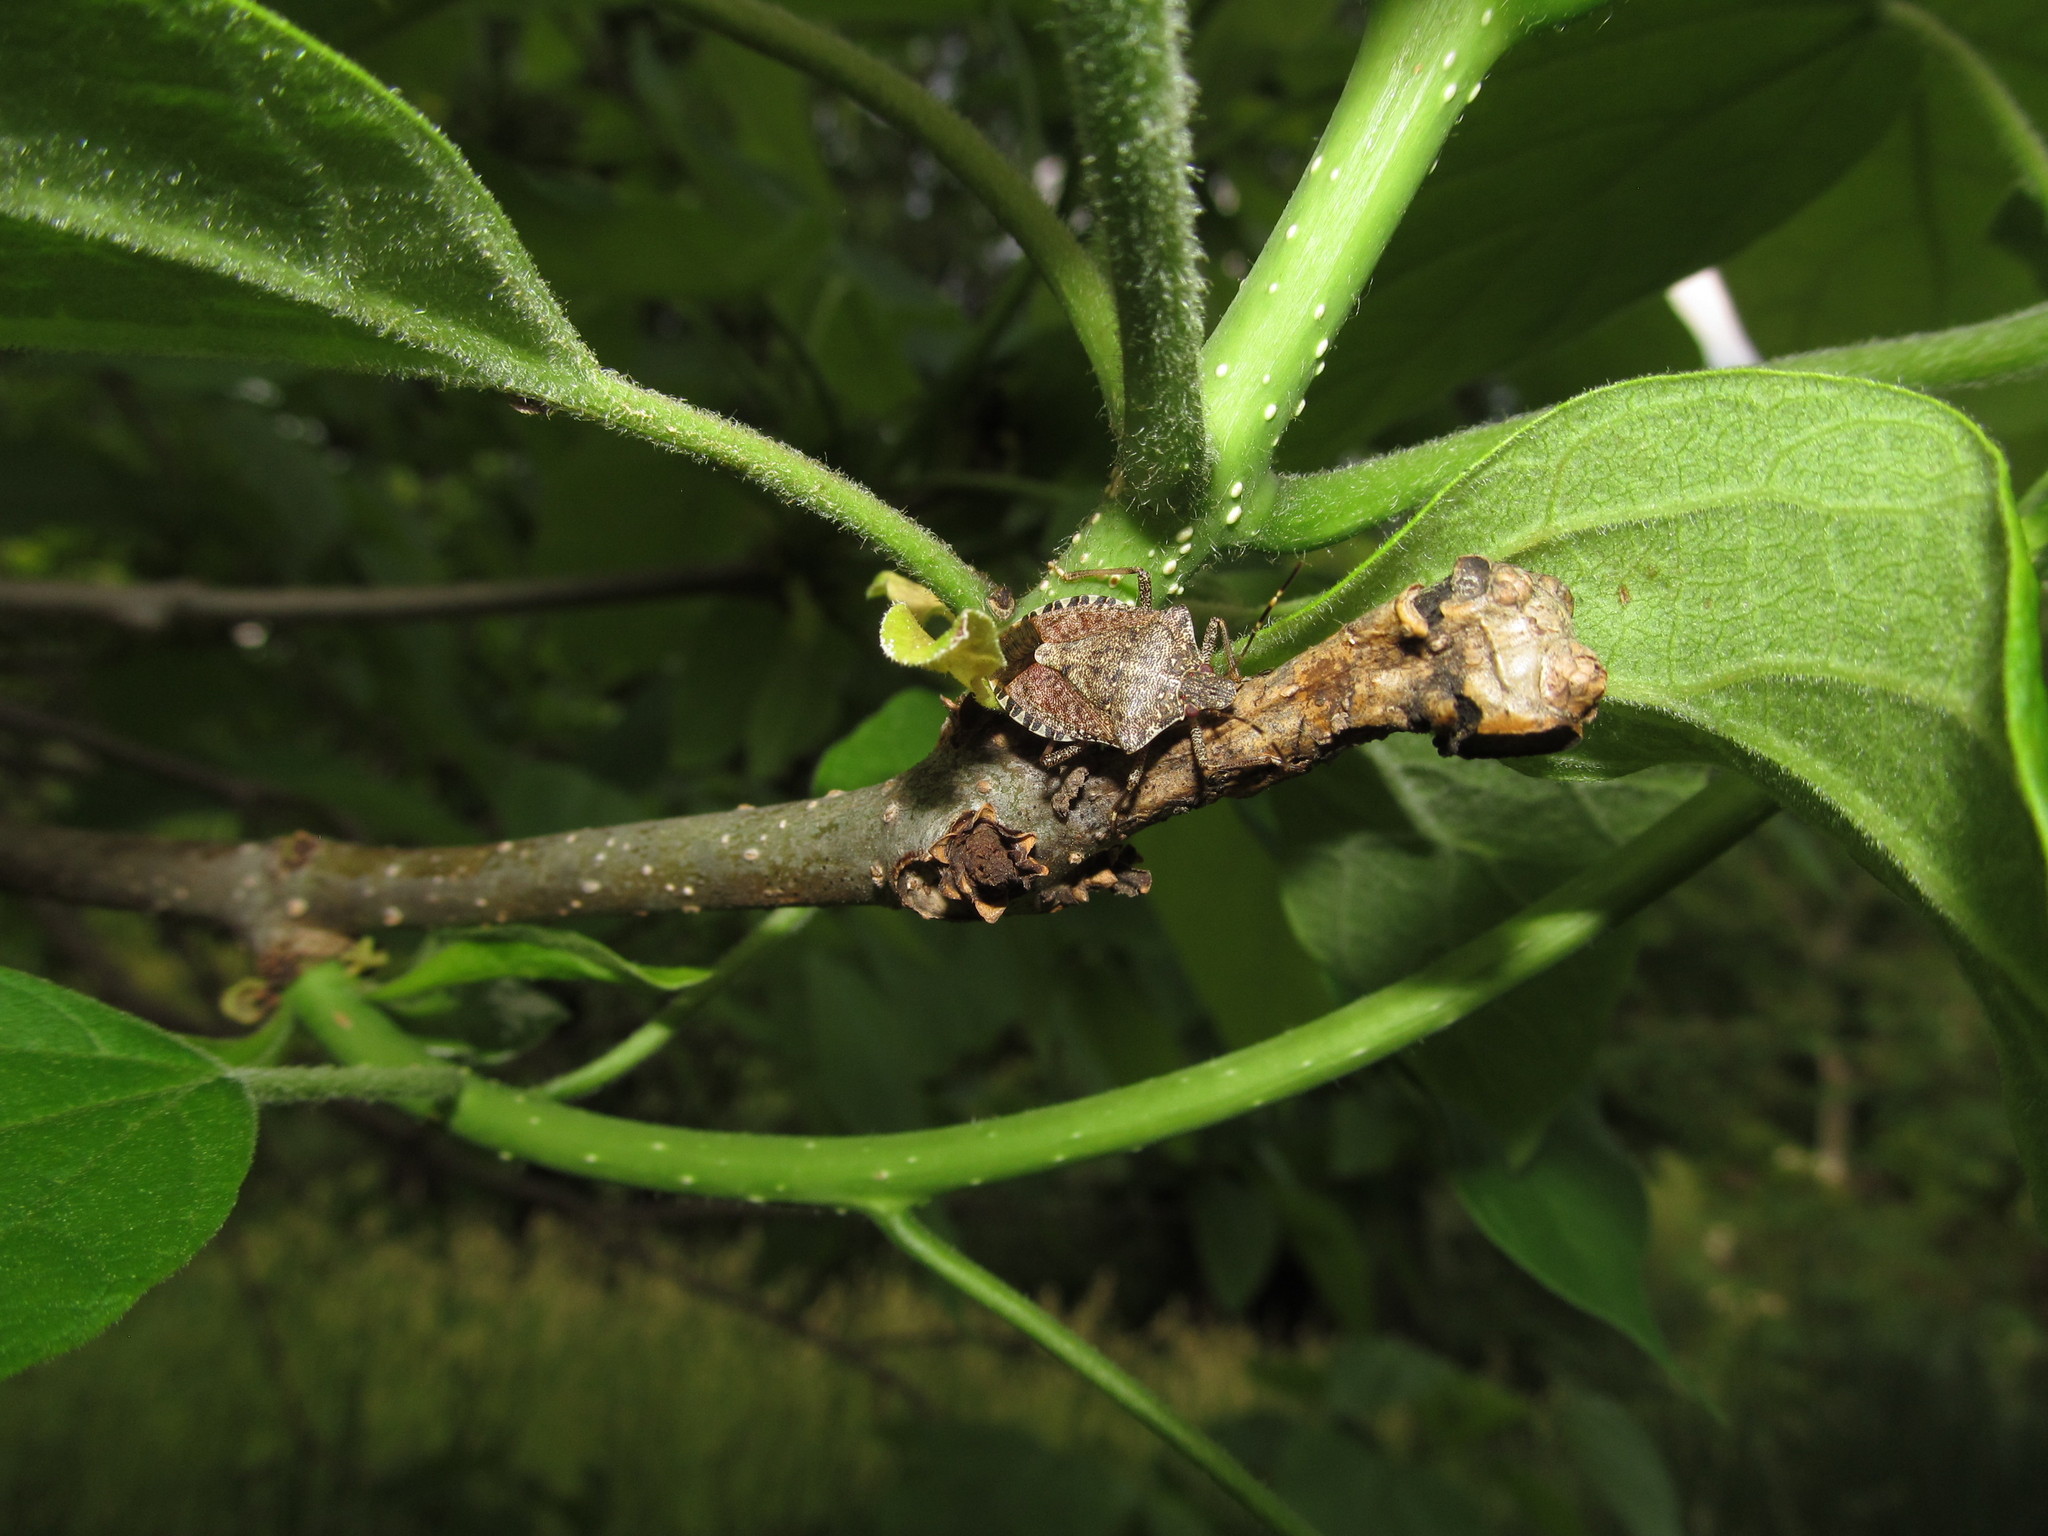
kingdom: Animalia
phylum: Arthropoda
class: Insecta
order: Hemiptera
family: Pentatomidae
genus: Halyomorpha
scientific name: Halyomorpha halys
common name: Brown marmorated stink bug
